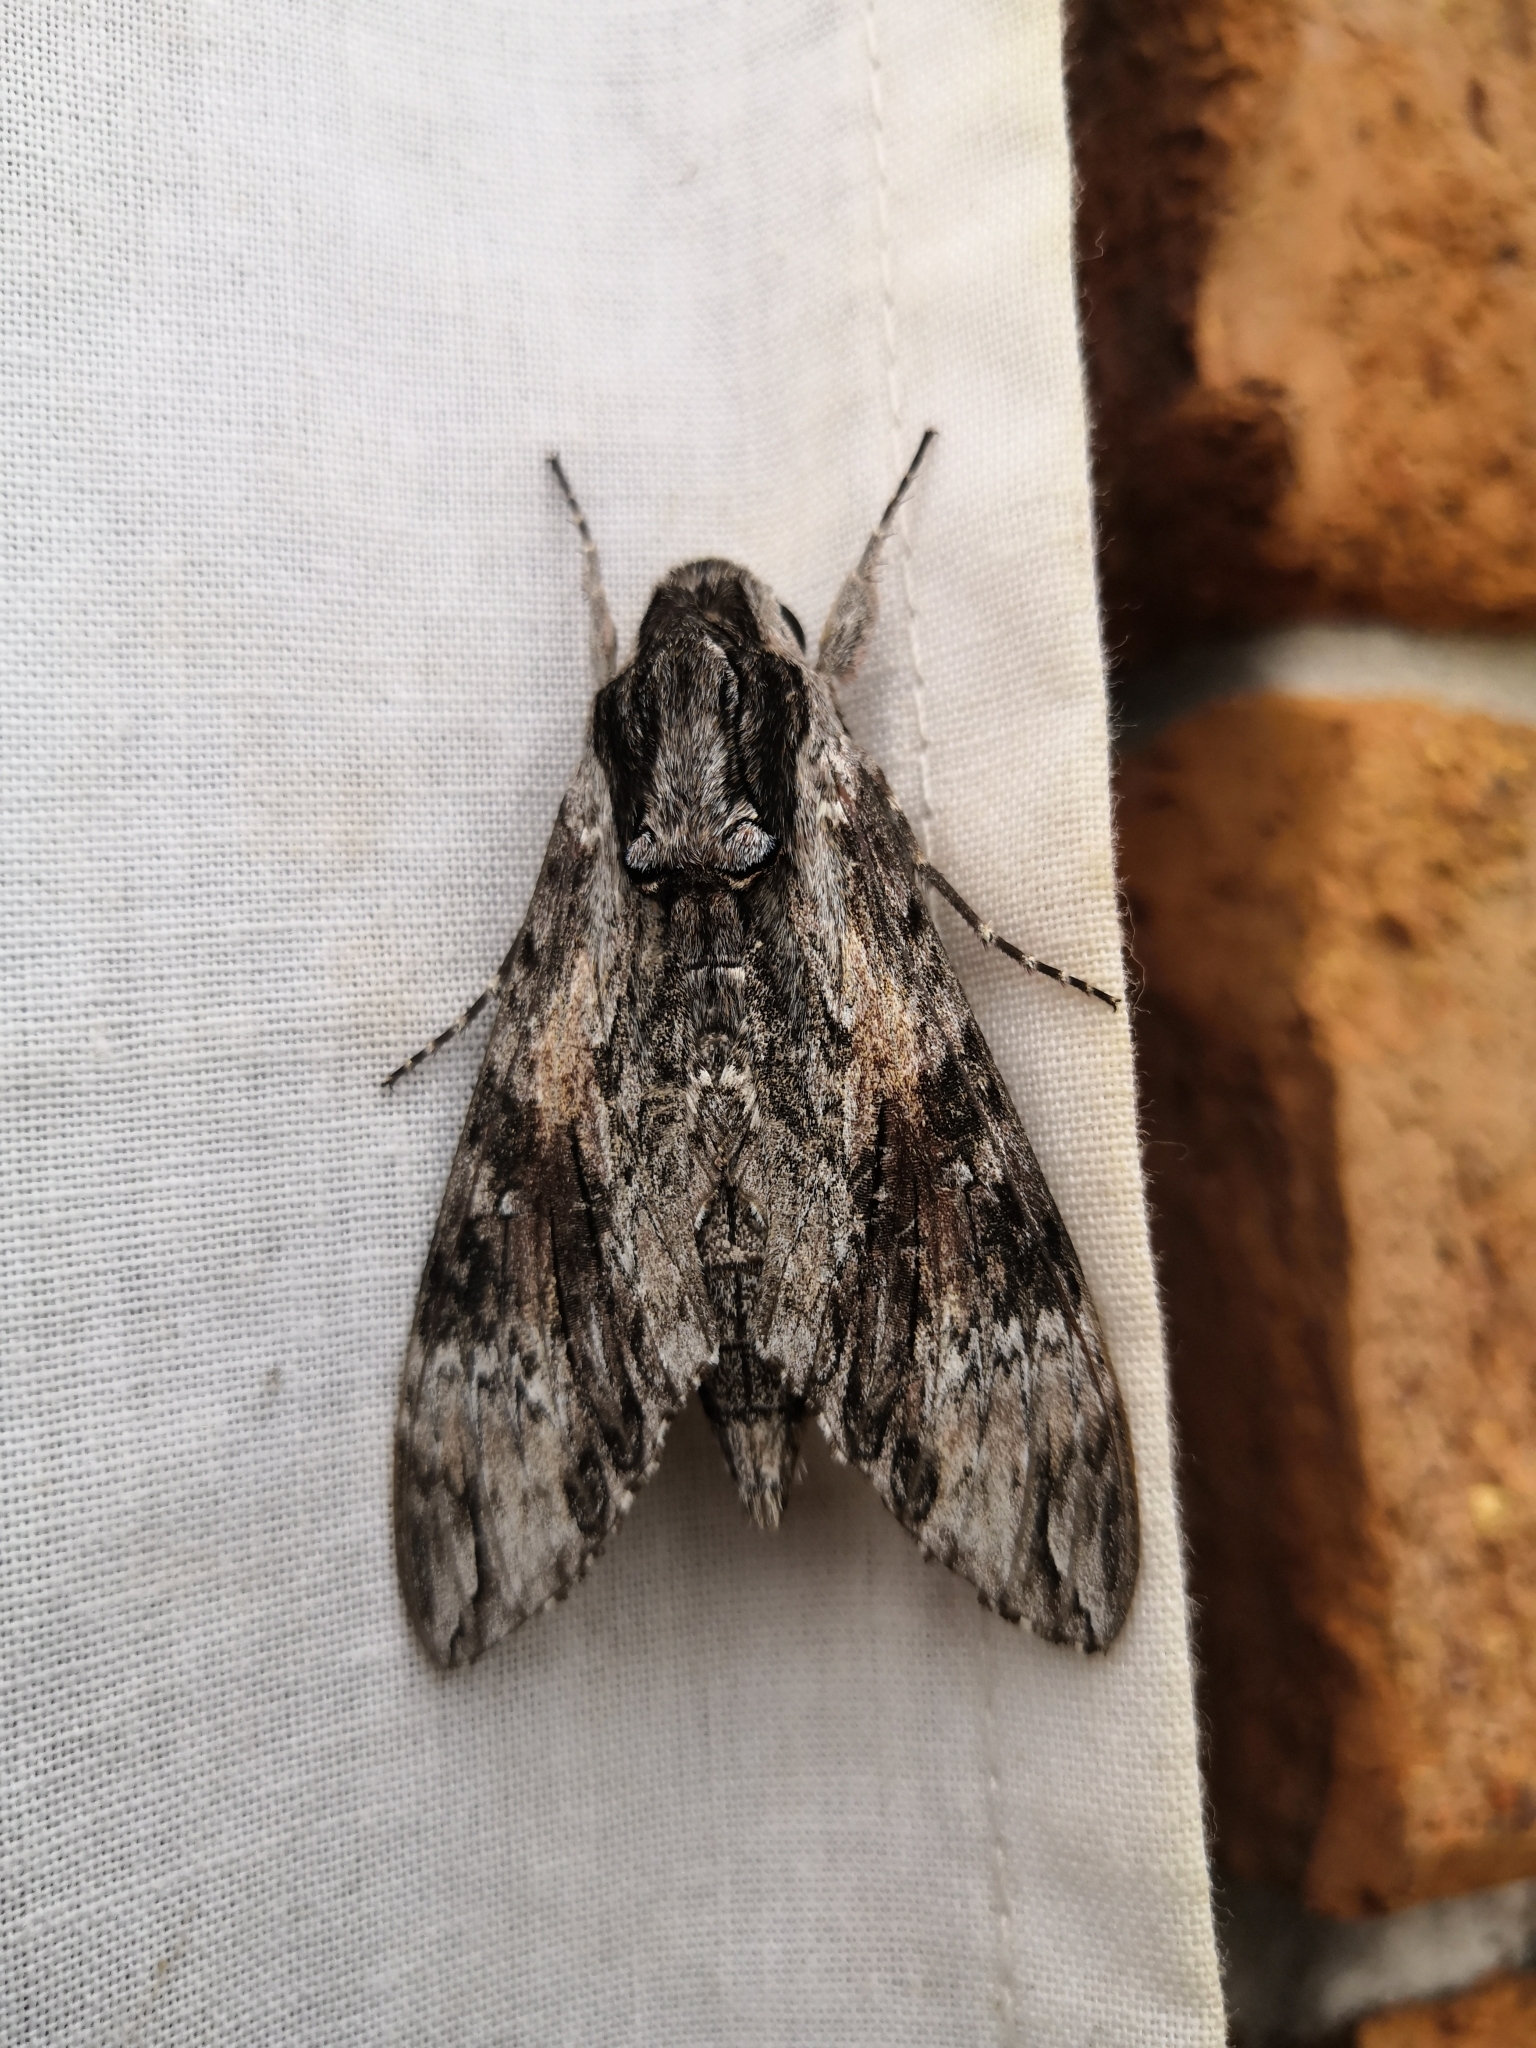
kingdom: Animalia
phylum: Arthropoda
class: Insecta
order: Lepidoptera
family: Sphingidae
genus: Agrius
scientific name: Agrius convolvuli
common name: Convolvulus hawkmoth
